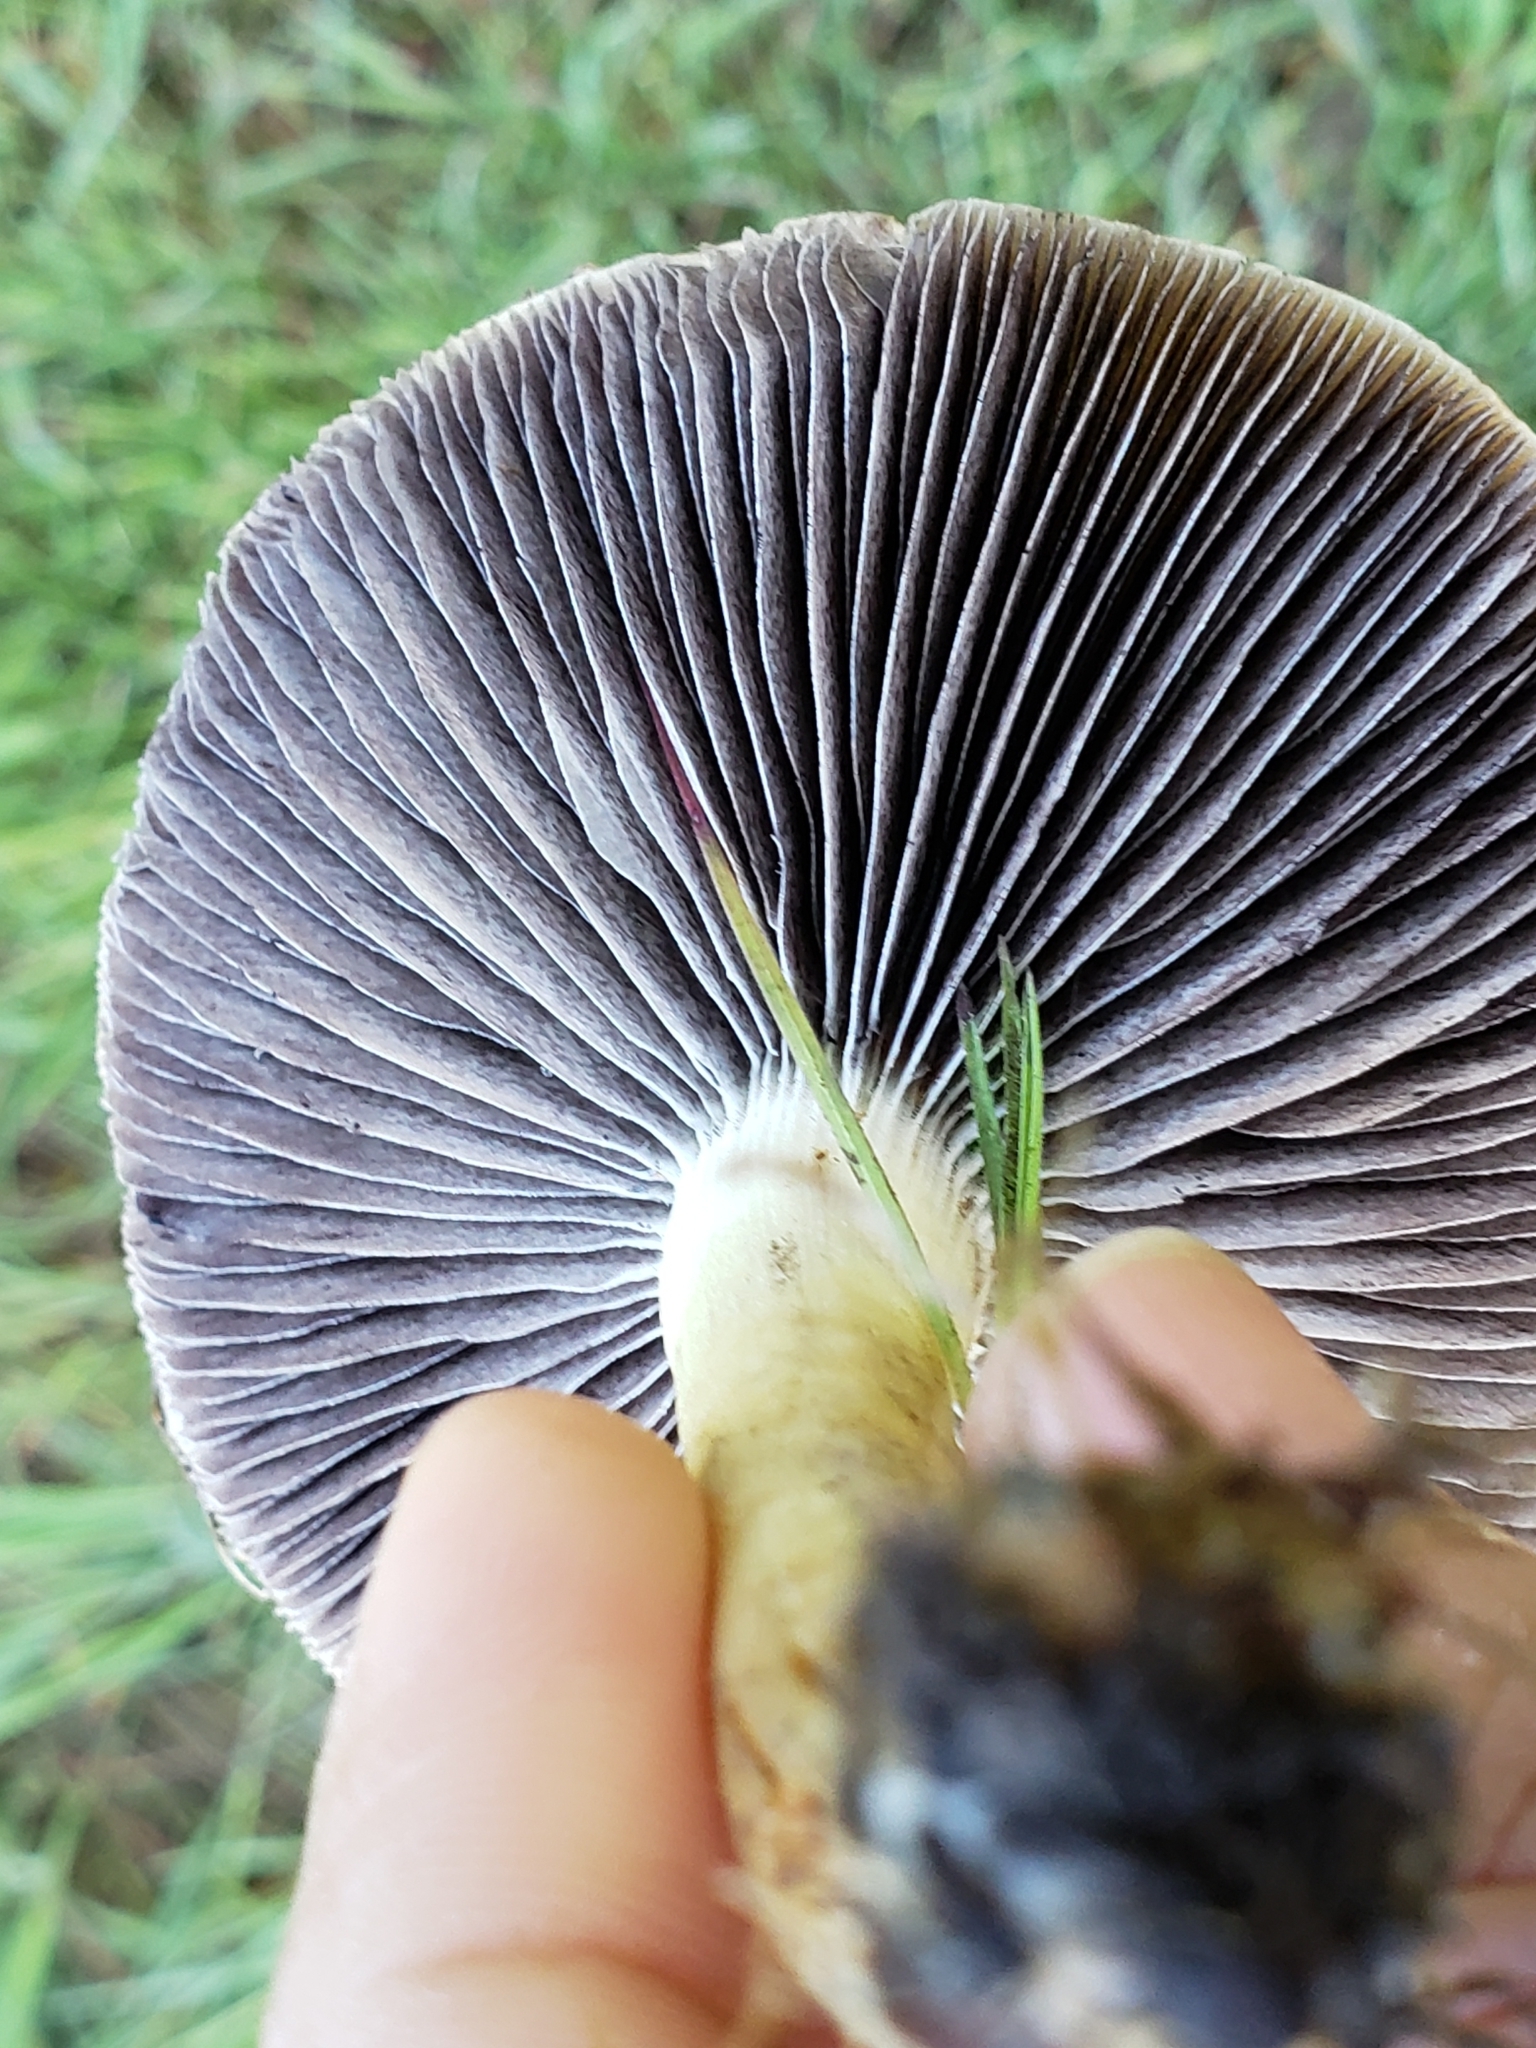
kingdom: Fungi
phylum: Basidiomycota
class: Agaricomycetes
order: Agaricales
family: Strophariaceae
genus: Leratiomyces
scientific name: Leratiomyces percevalii
